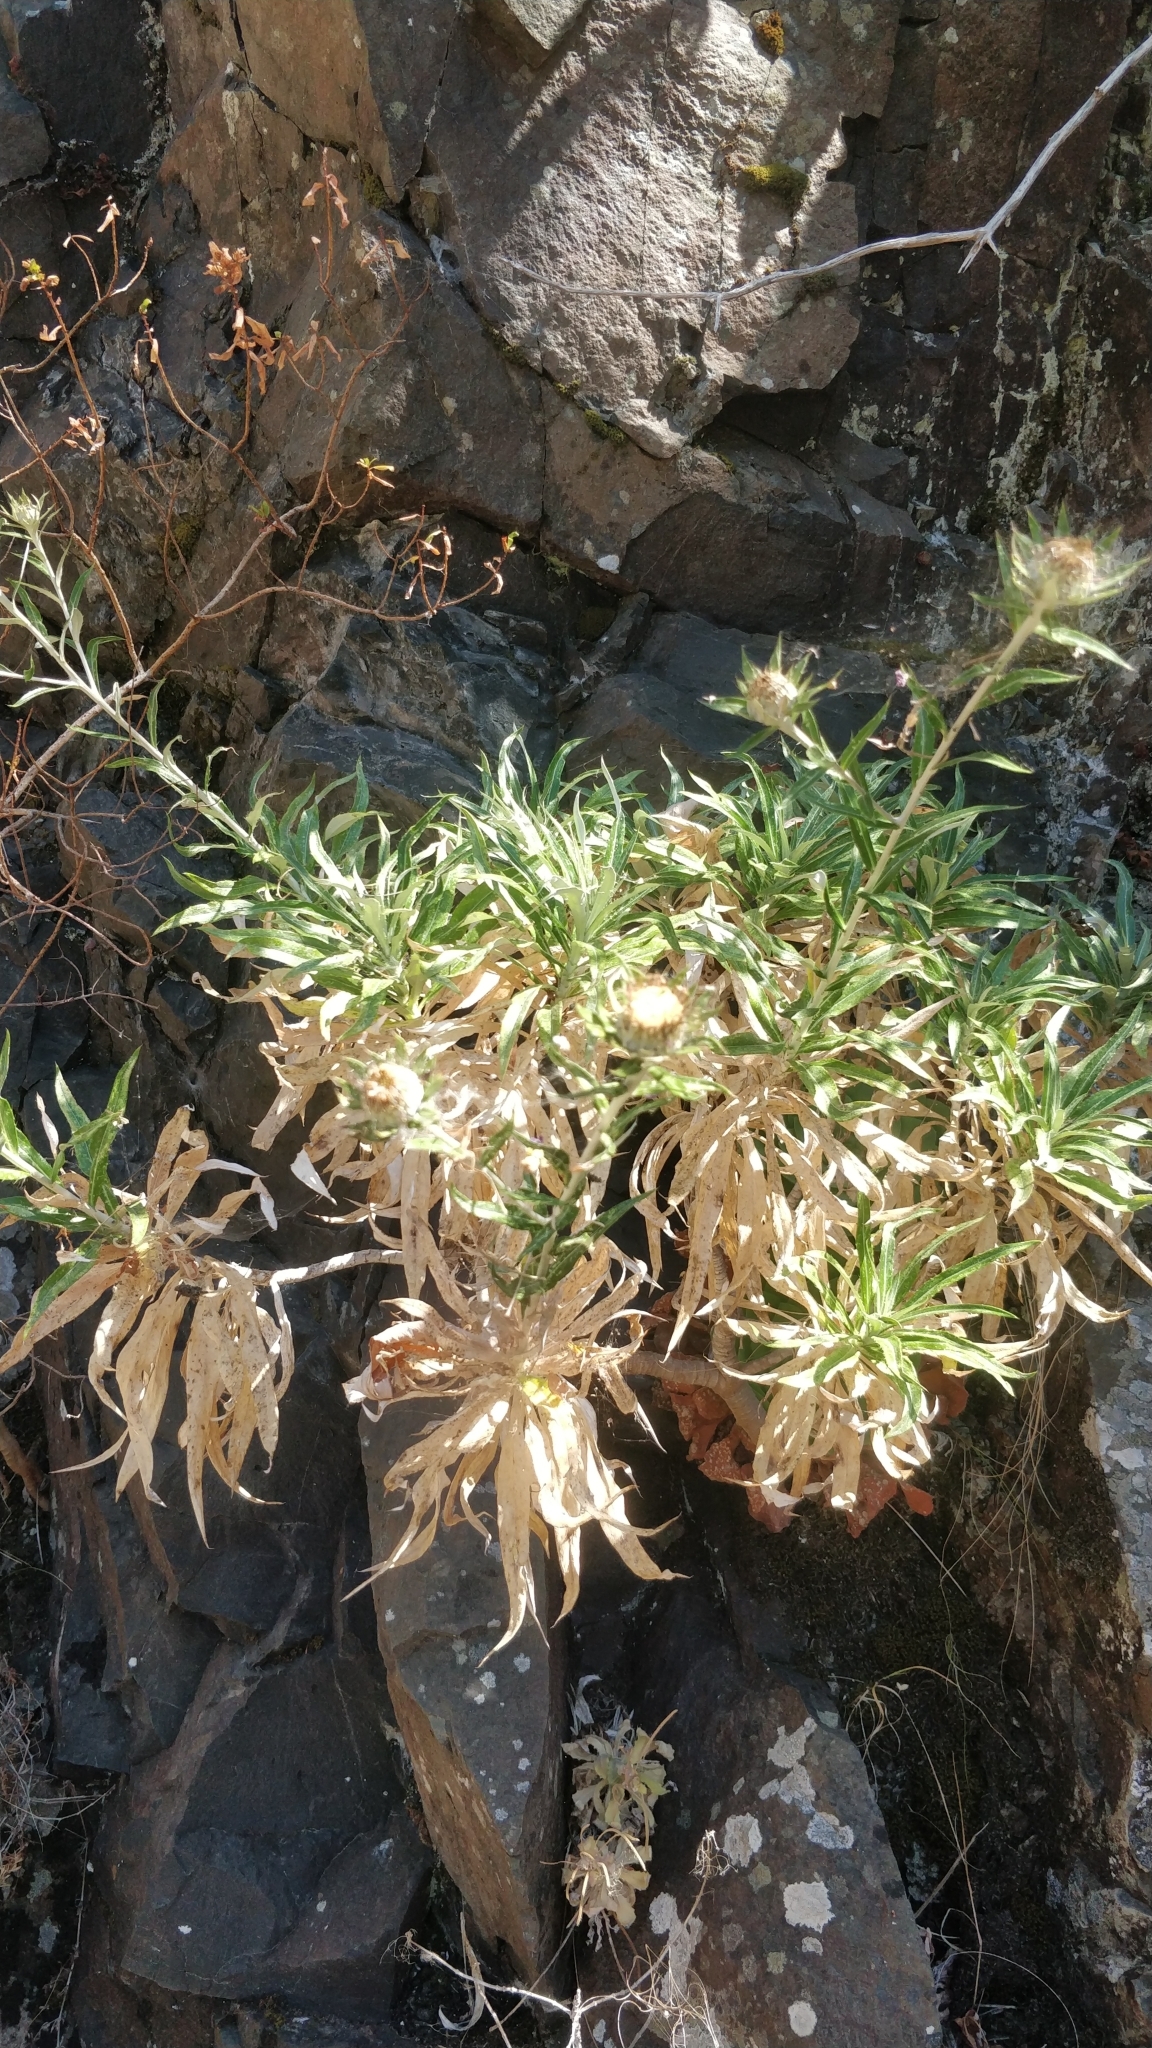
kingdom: Plantae
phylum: Tracheophyta
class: Magnoliopsida
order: Asterales
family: Asteraceae
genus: Carlina
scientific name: Carlina salicifolia
